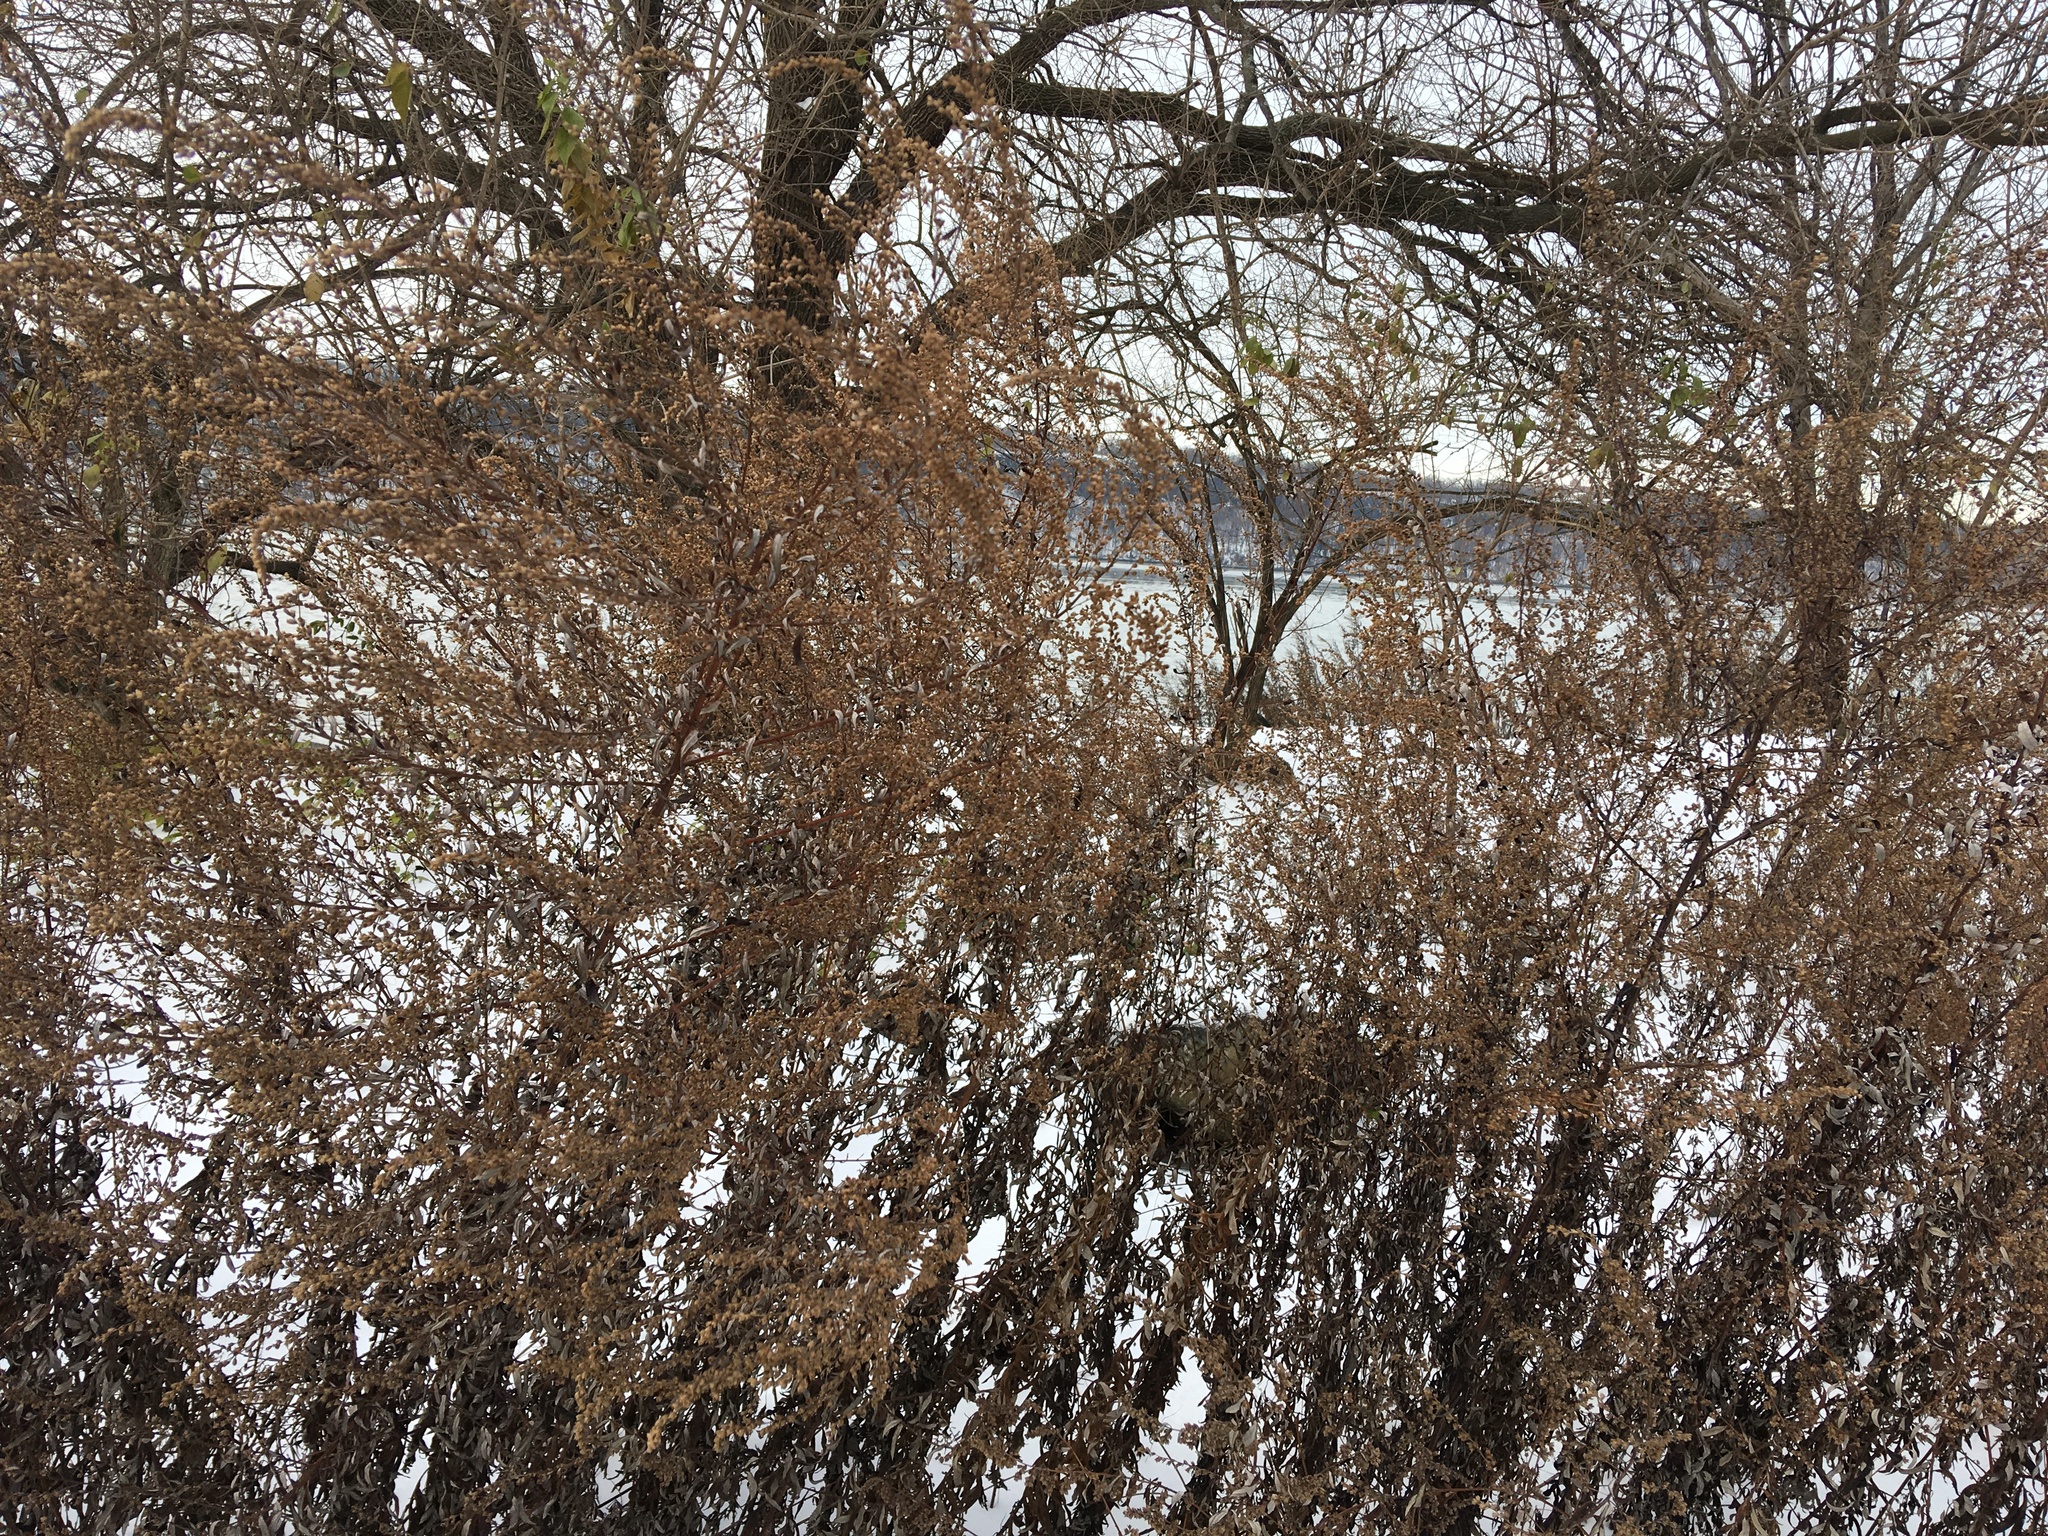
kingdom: Plantae
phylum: Tracheophyta
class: Magnoliopsida
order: Asterales
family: Asteraceae
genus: Artemisia
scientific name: Artemisia vulgaris
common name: Mugwort
